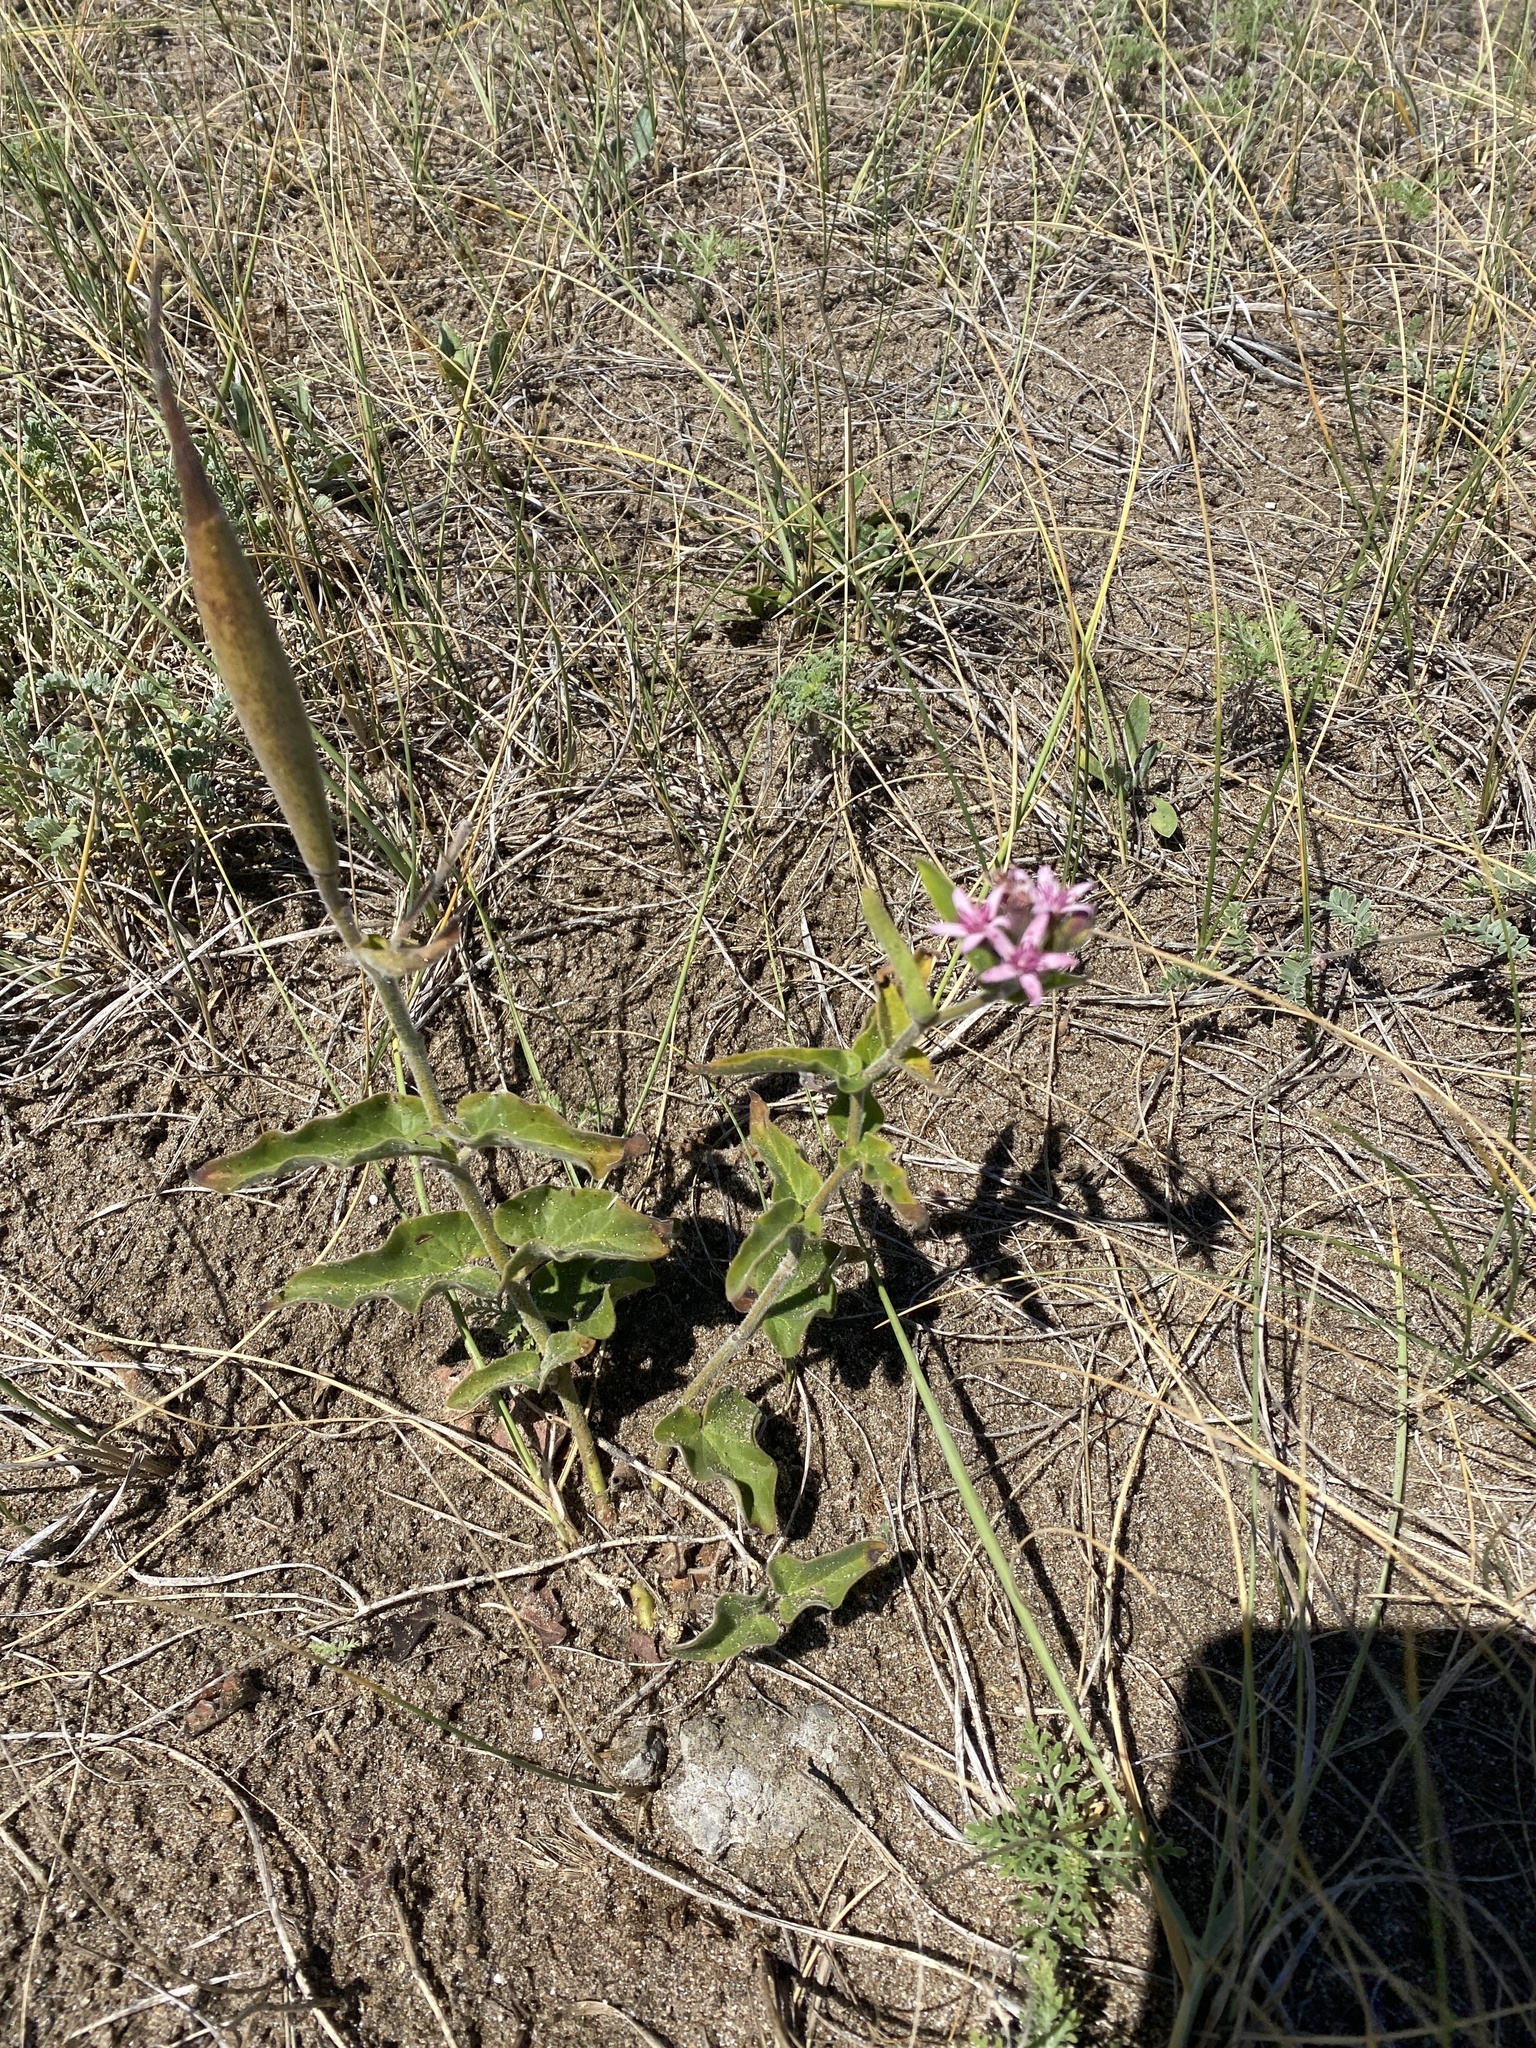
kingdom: Plantae
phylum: Tracheophyta
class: Magnoliopsida
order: Gentianales
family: Apocynaceae
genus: Oxypetalum
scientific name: Oxypetalum solanoides
